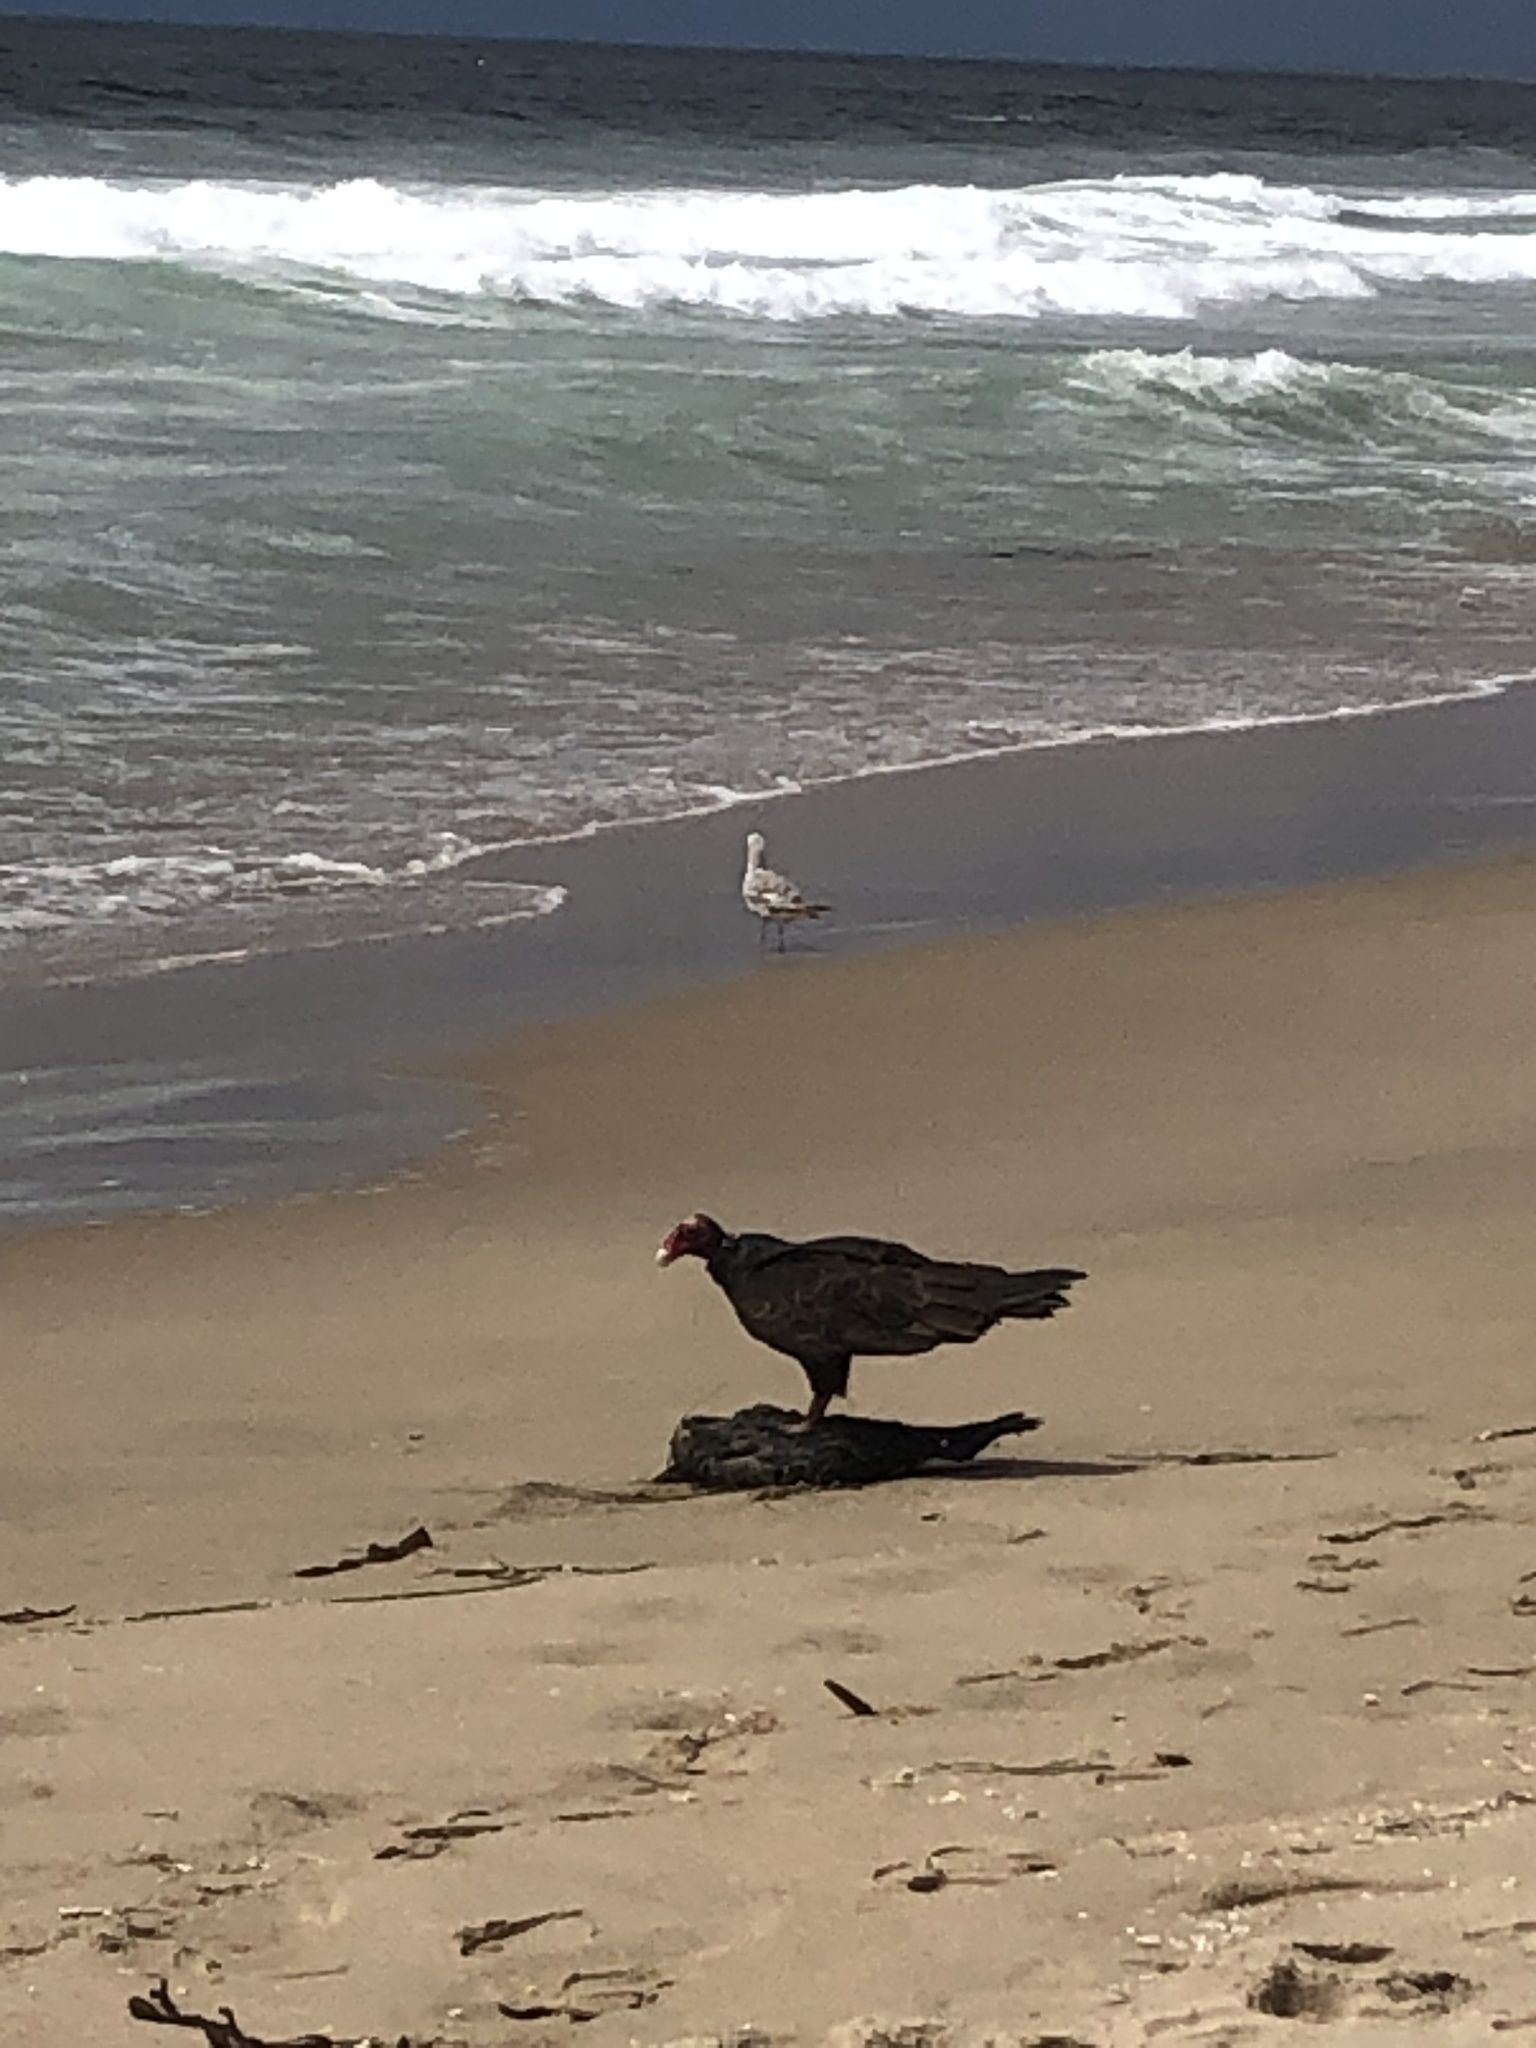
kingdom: Animalia
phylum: Chordata
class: Aves
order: Accipitriformes
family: Cathartidae
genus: Cathartes
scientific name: Cathartes aura
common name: Turkey vulture
